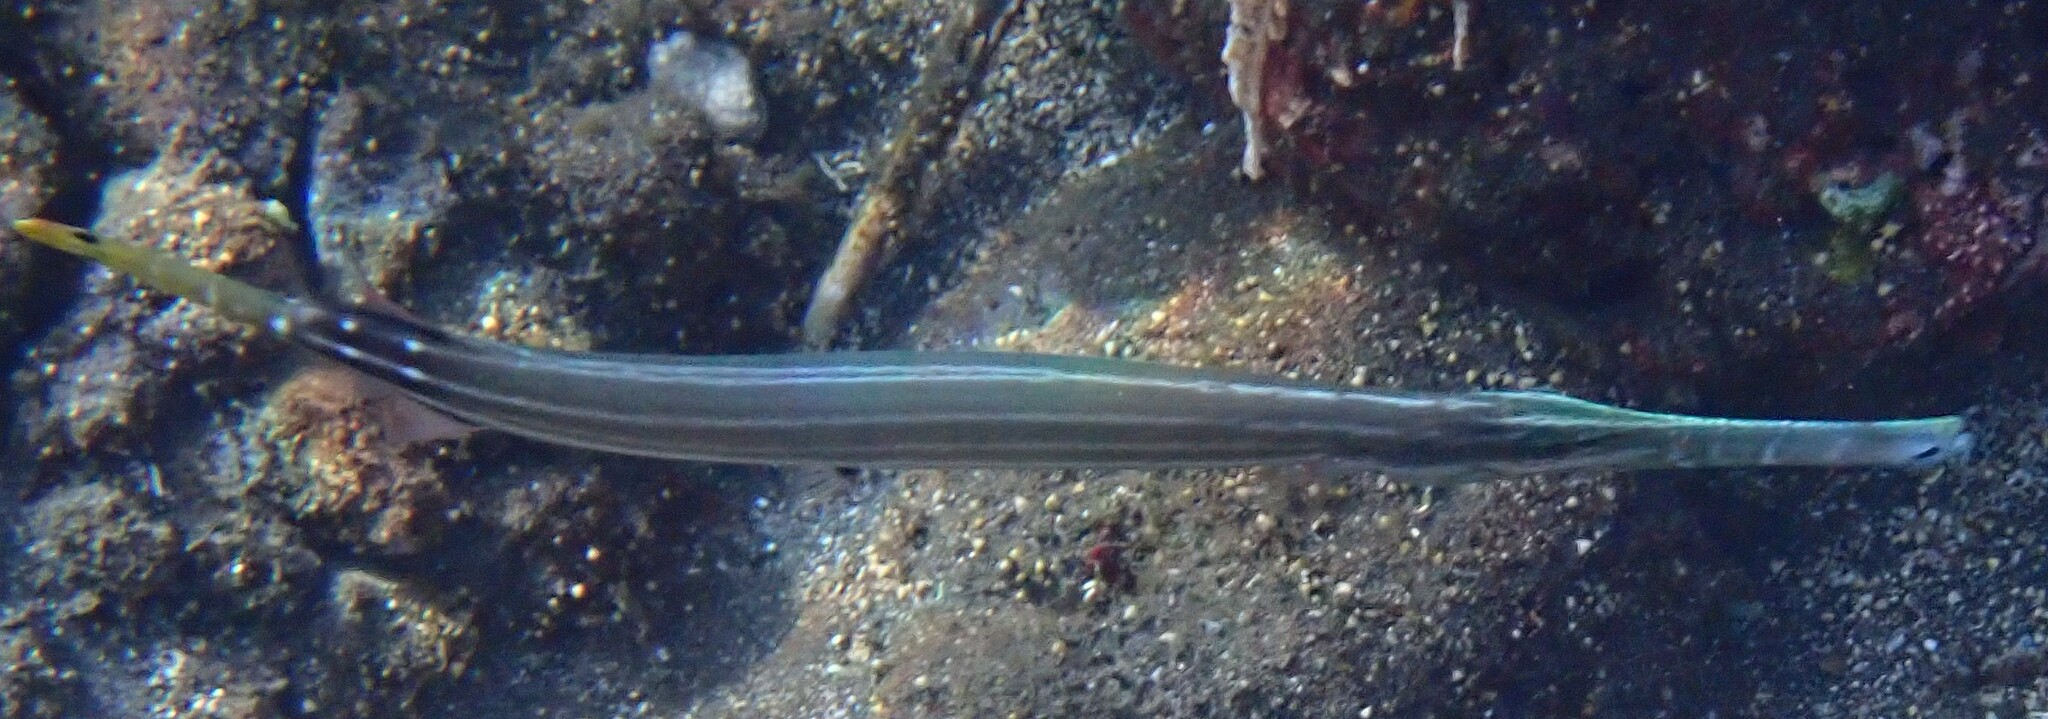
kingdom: Animalia
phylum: Chordata
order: Syngnathiformes
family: Aulostomidae
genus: Aulostomus
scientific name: Aulostomus chinensis
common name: Chinese trumpetfish
